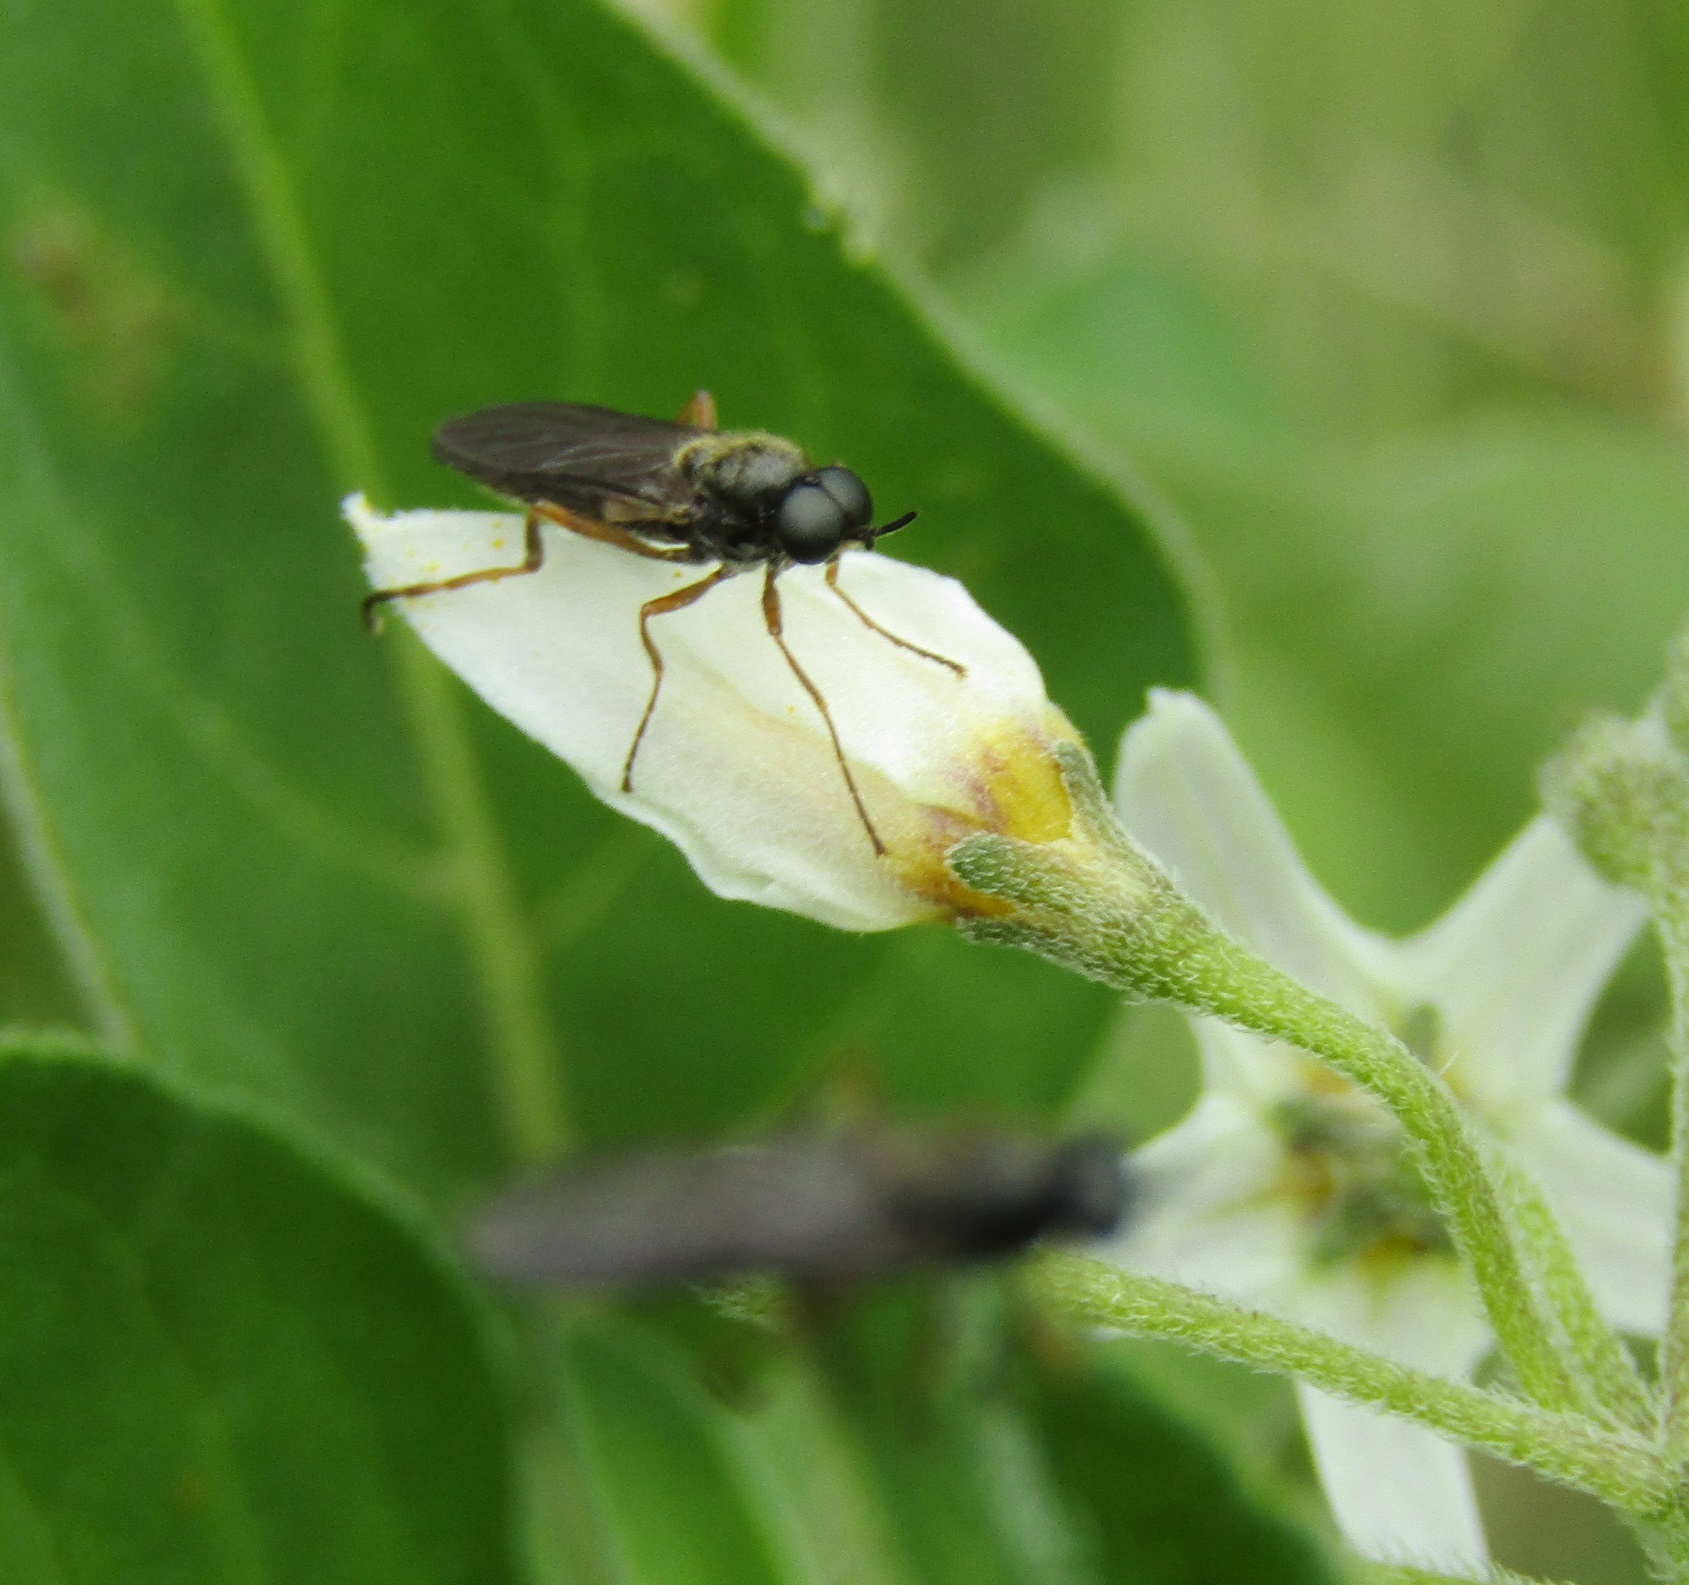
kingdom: Animalia
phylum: Arthropoda
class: Insecta
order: Diptera
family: Stratiomyidae
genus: Inopus
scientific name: Inopus rubriceps
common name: Soldier fly
